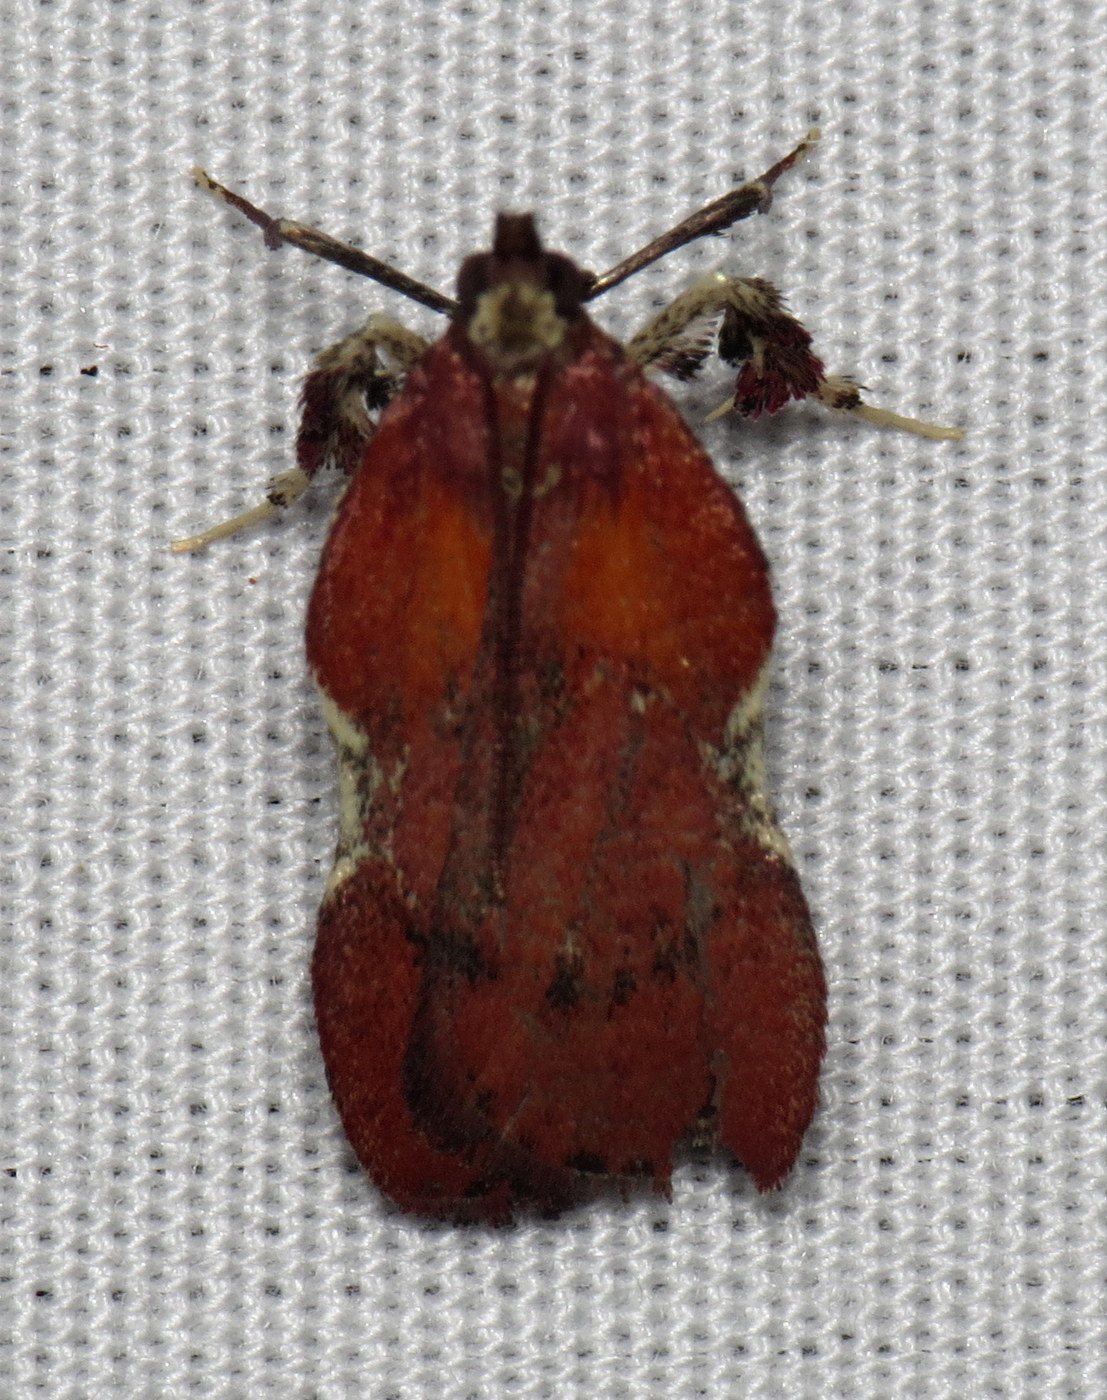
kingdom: Animalia
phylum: Arthropoda
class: Insecta
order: Lepidoptera
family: Pyralidae
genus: Galasa
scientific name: Galasa nigrinodis
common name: Boxwood leaftier moth
